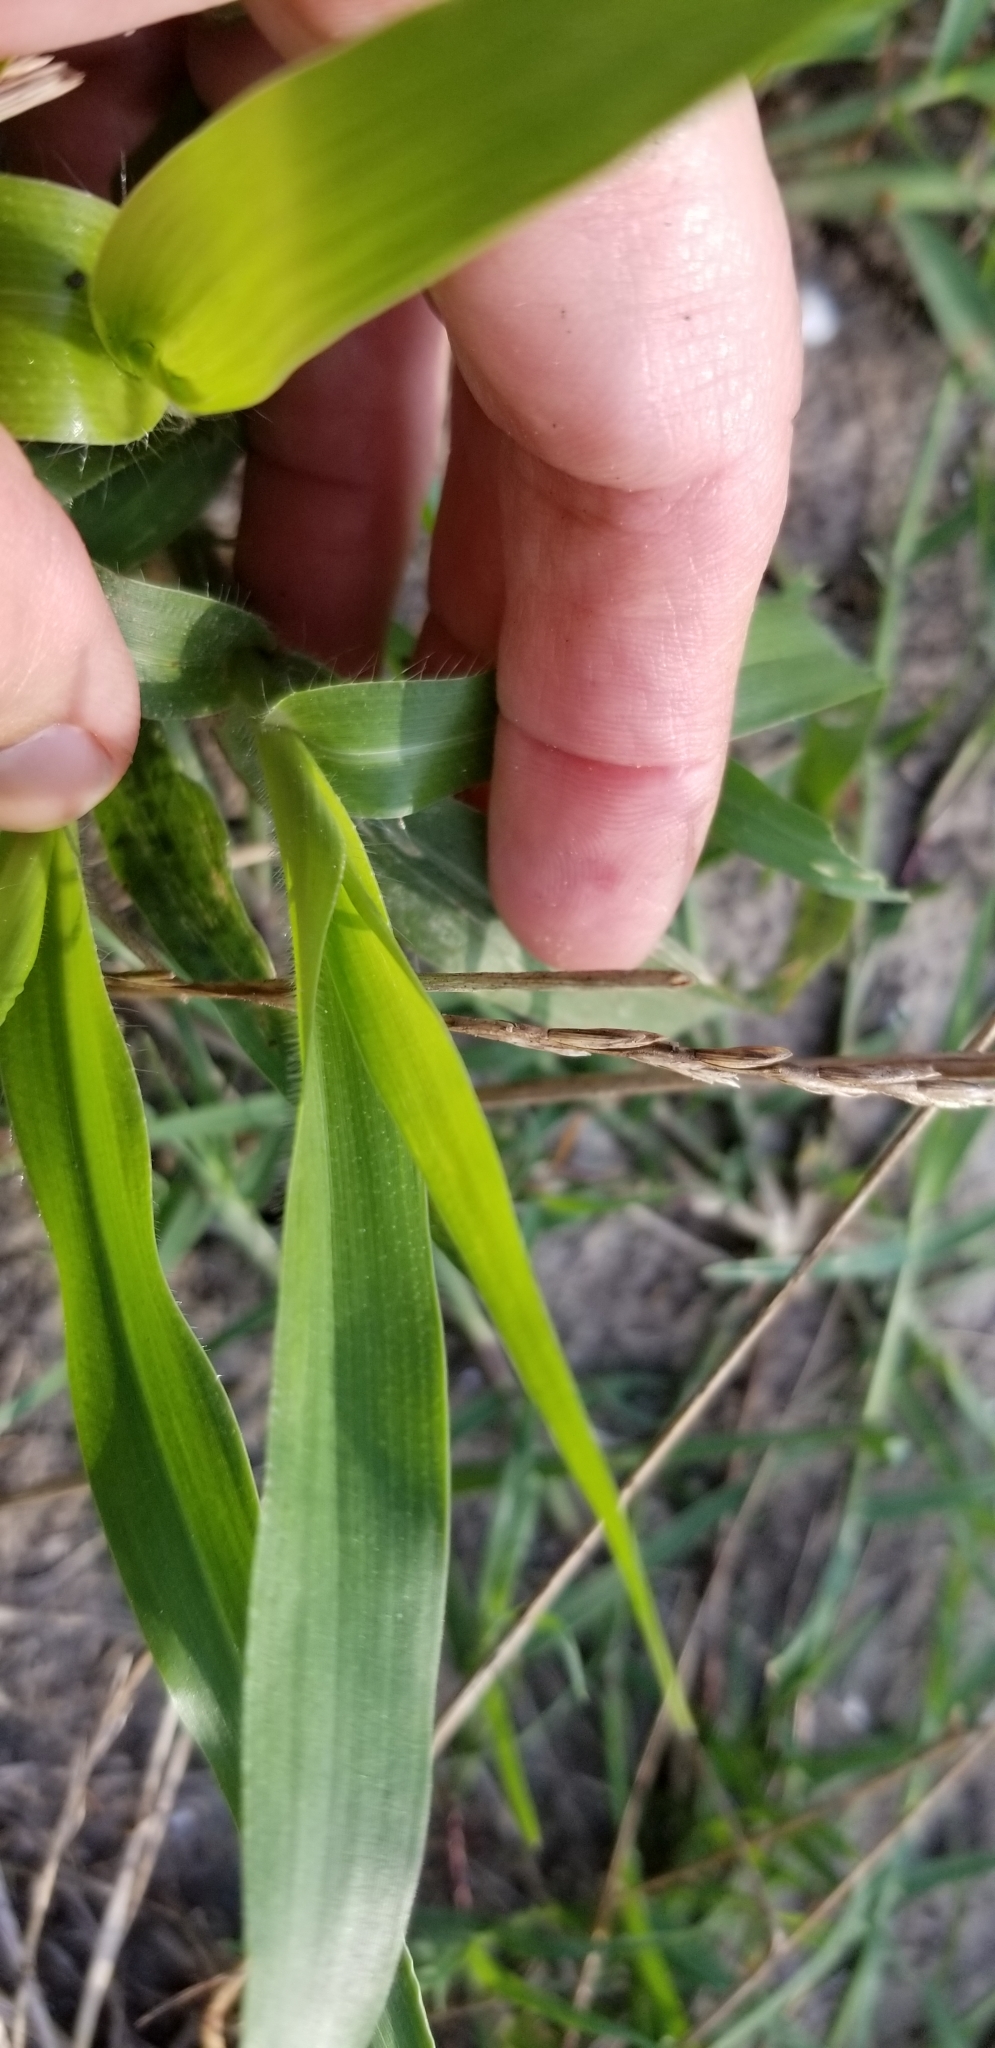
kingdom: Plantae
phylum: Tracheophyta
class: Liliopsida
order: Poales
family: Poaceae
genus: Panicum
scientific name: Panicum capillare
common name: Witch-grass
